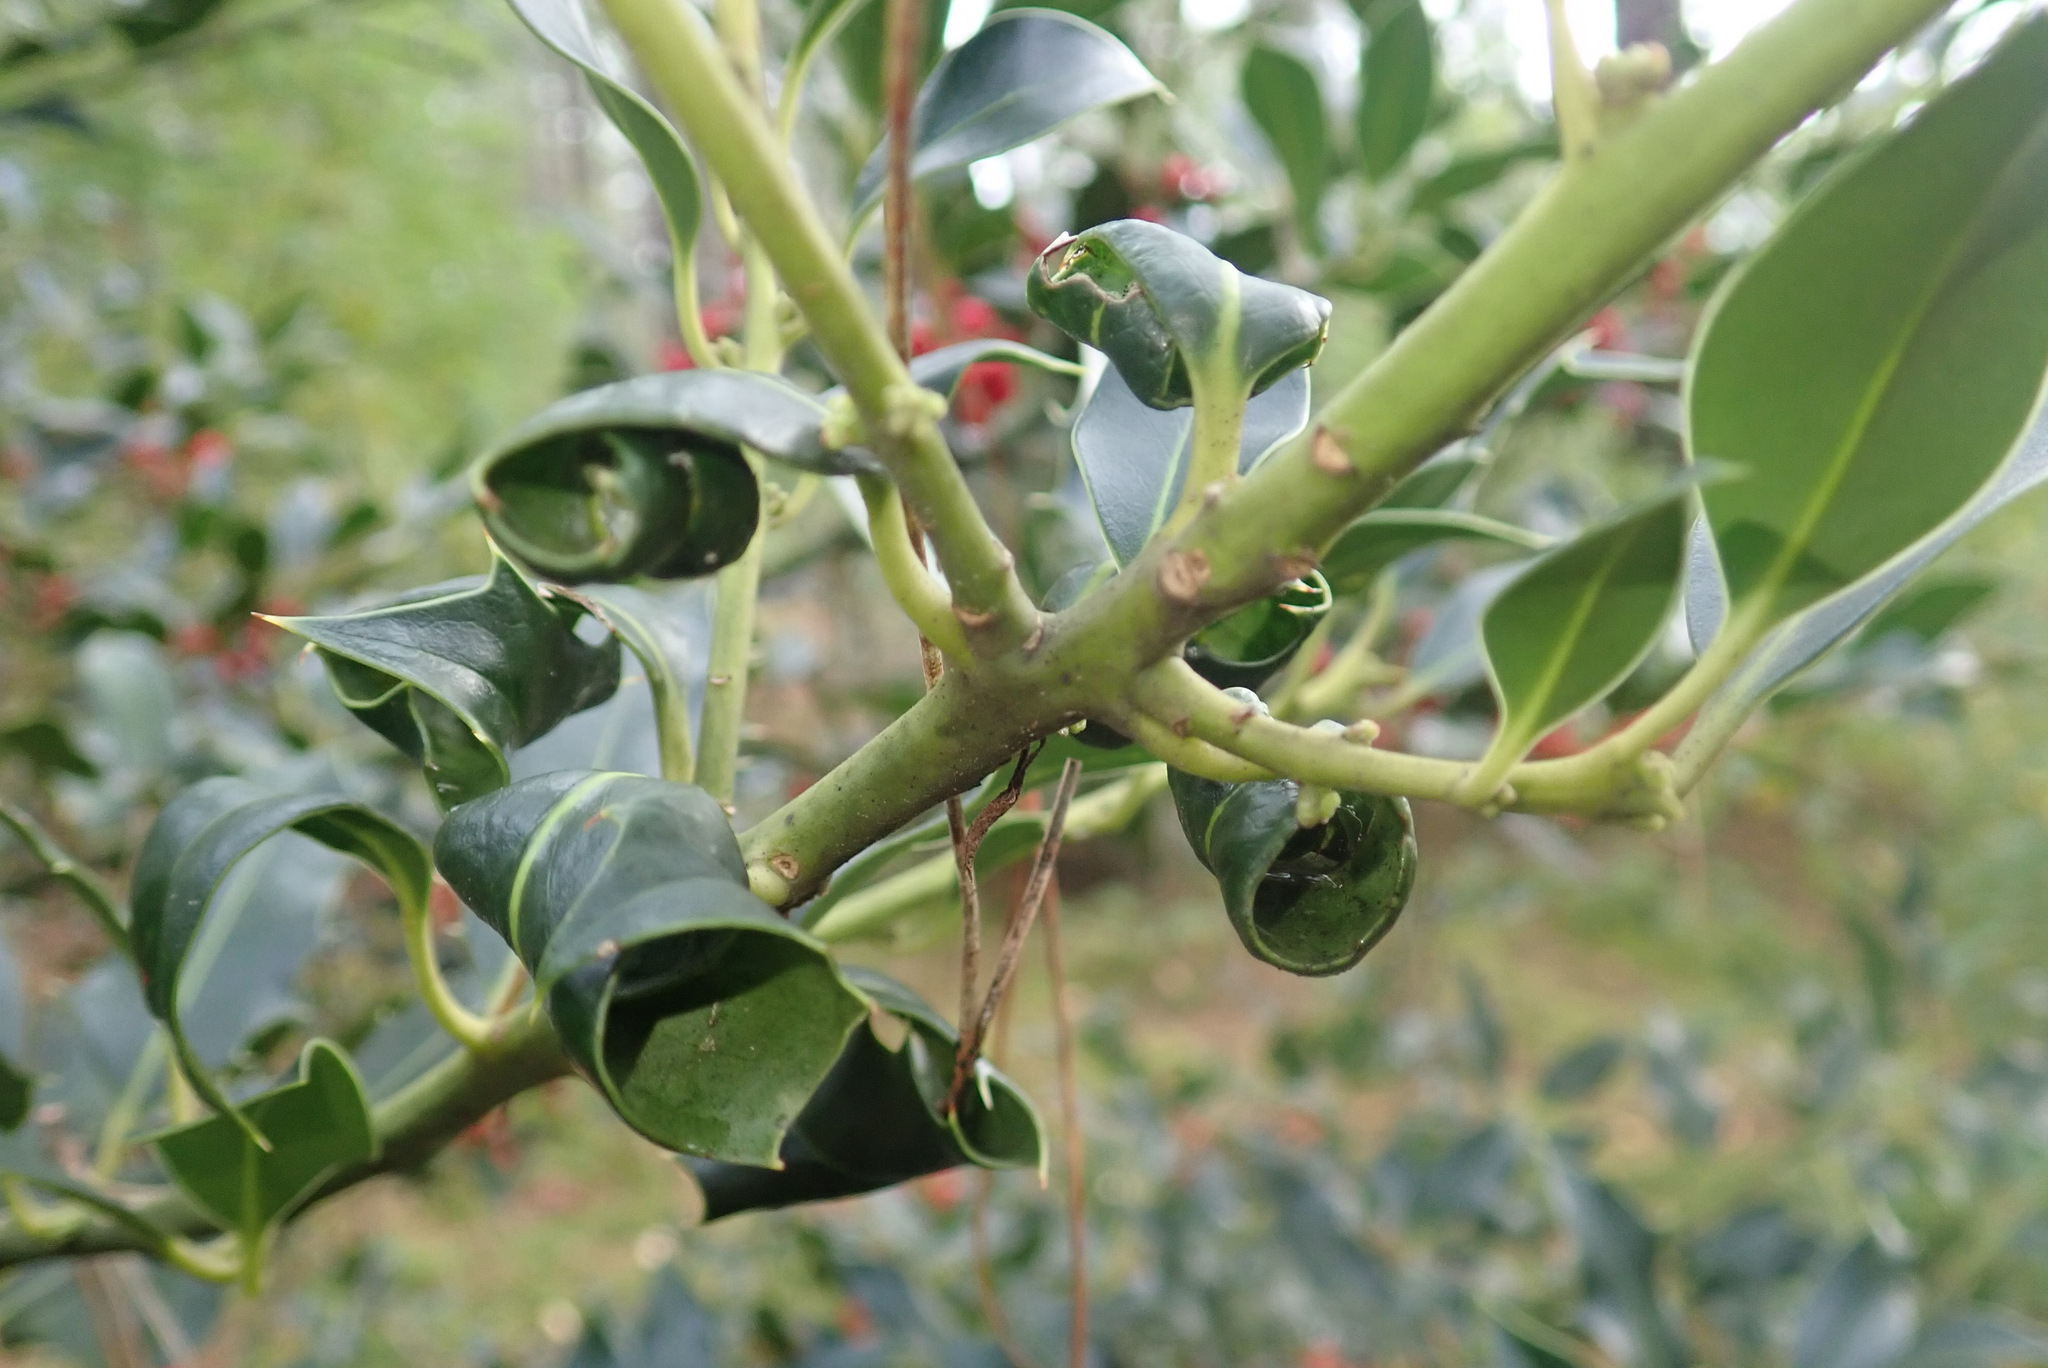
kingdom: Animalia
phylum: Arthropoda
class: Insecta
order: Hemiptera
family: Aphididae
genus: Aphis
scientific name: Aphis ilicis
